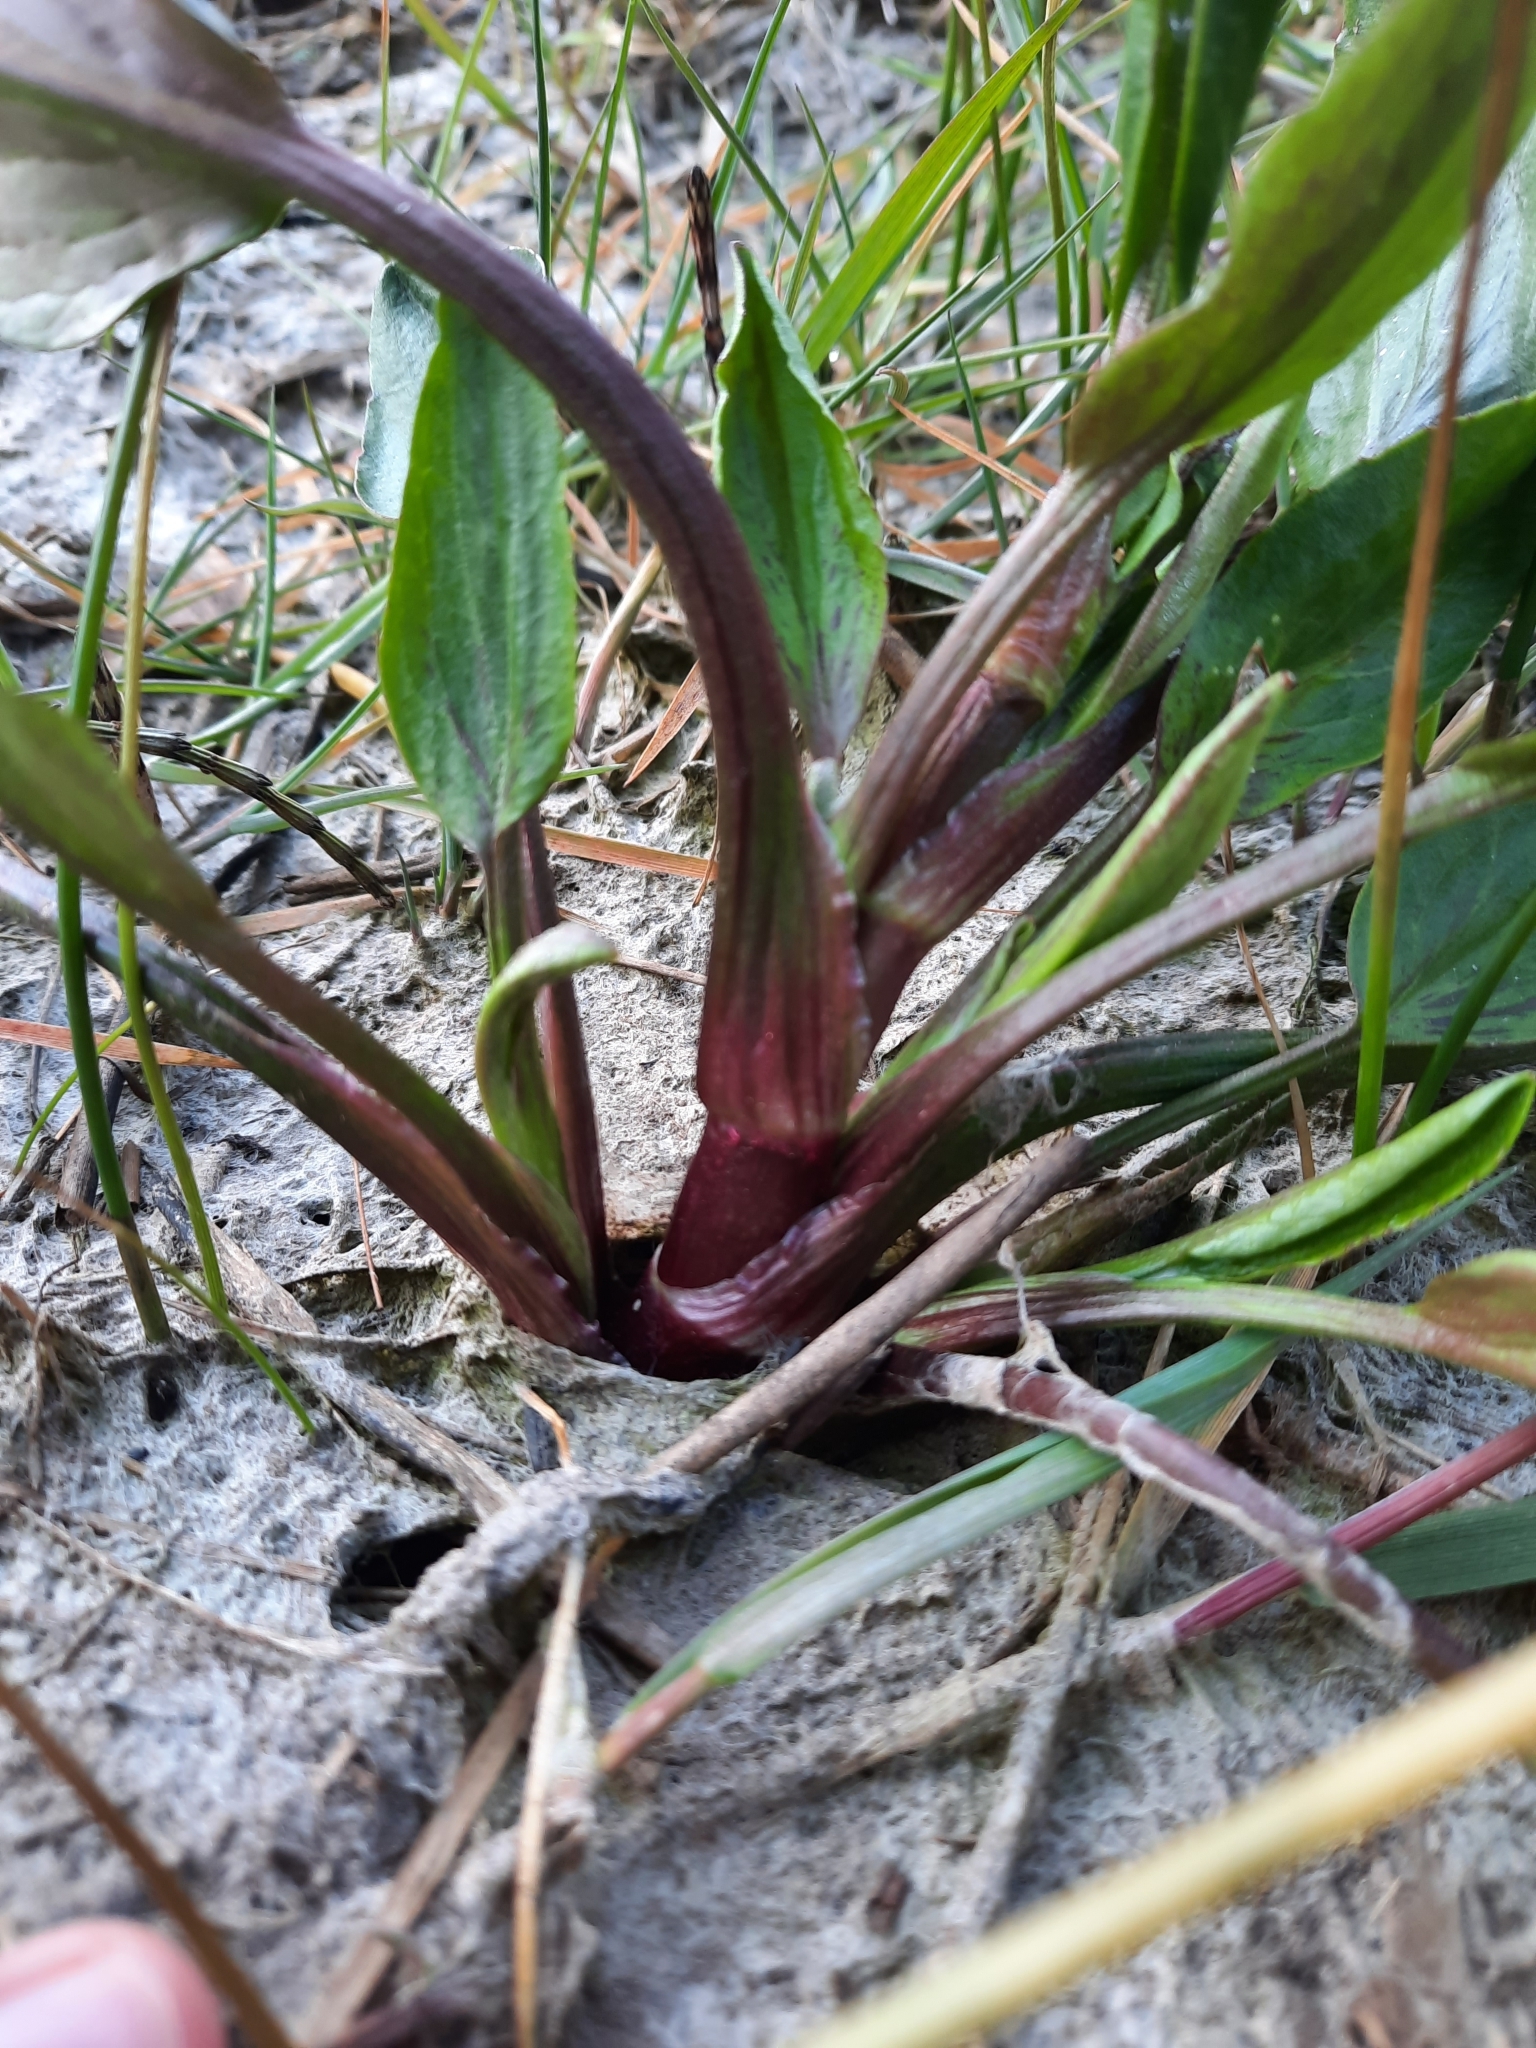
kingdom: Plantae
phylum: Tracheophyta
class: Magnoliopsida
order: Ranunculales
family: Ranunculaceae
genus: Ranunculus
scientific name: Ranunculus flammula
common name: Lesser spearwort
